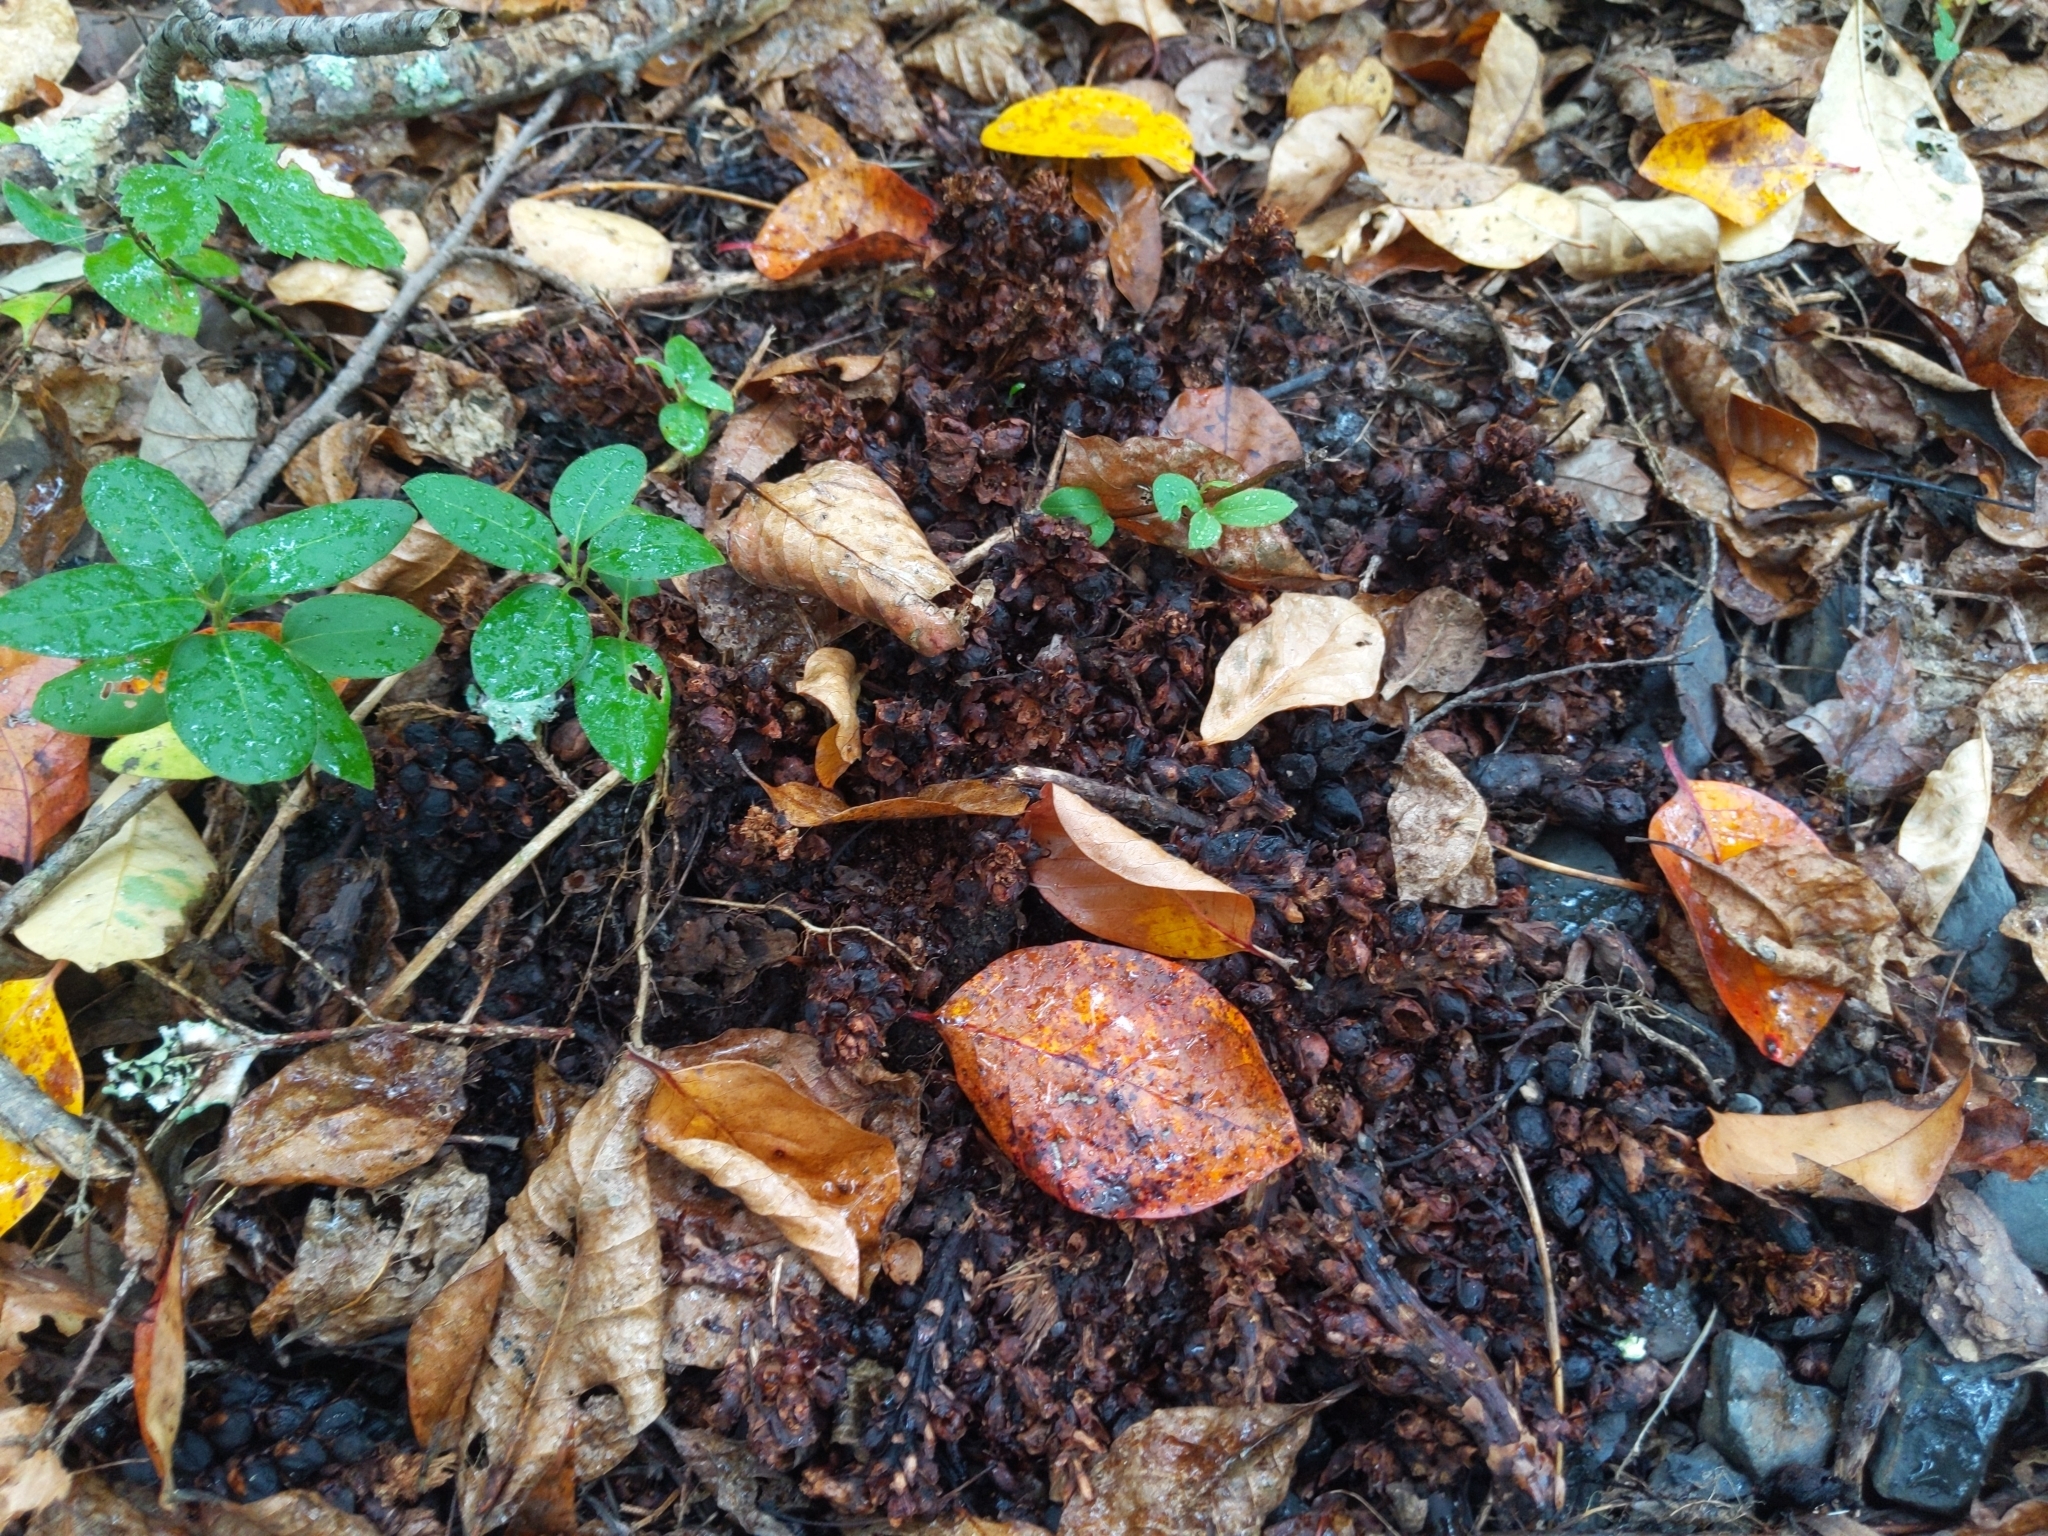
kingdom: Plantae
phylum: Tracheophyta
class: Magnoliopsida
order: Lamiales
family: Orobanchaceae
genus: Conopholis
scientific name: Conopholis americana
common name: American cancer-root
